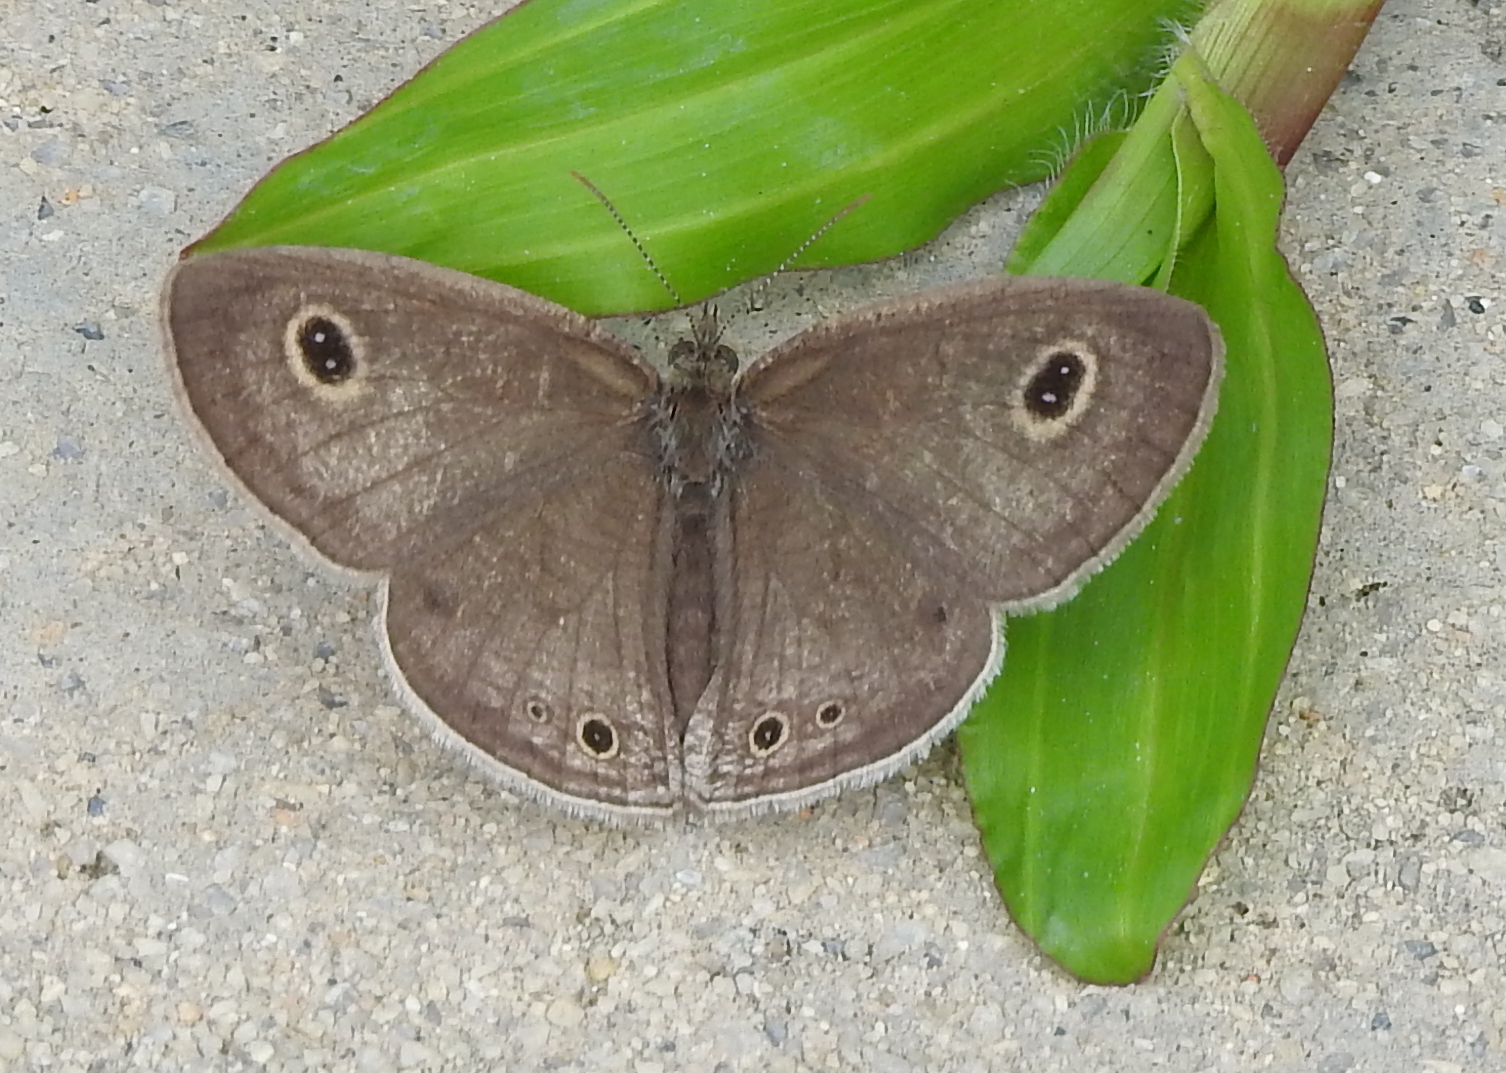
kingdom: Animalia
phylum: Arthropoda
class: Insecta
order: Lepidoptera
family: Nymphalidae
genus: Ypthima
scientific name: Ypthima huebneri
